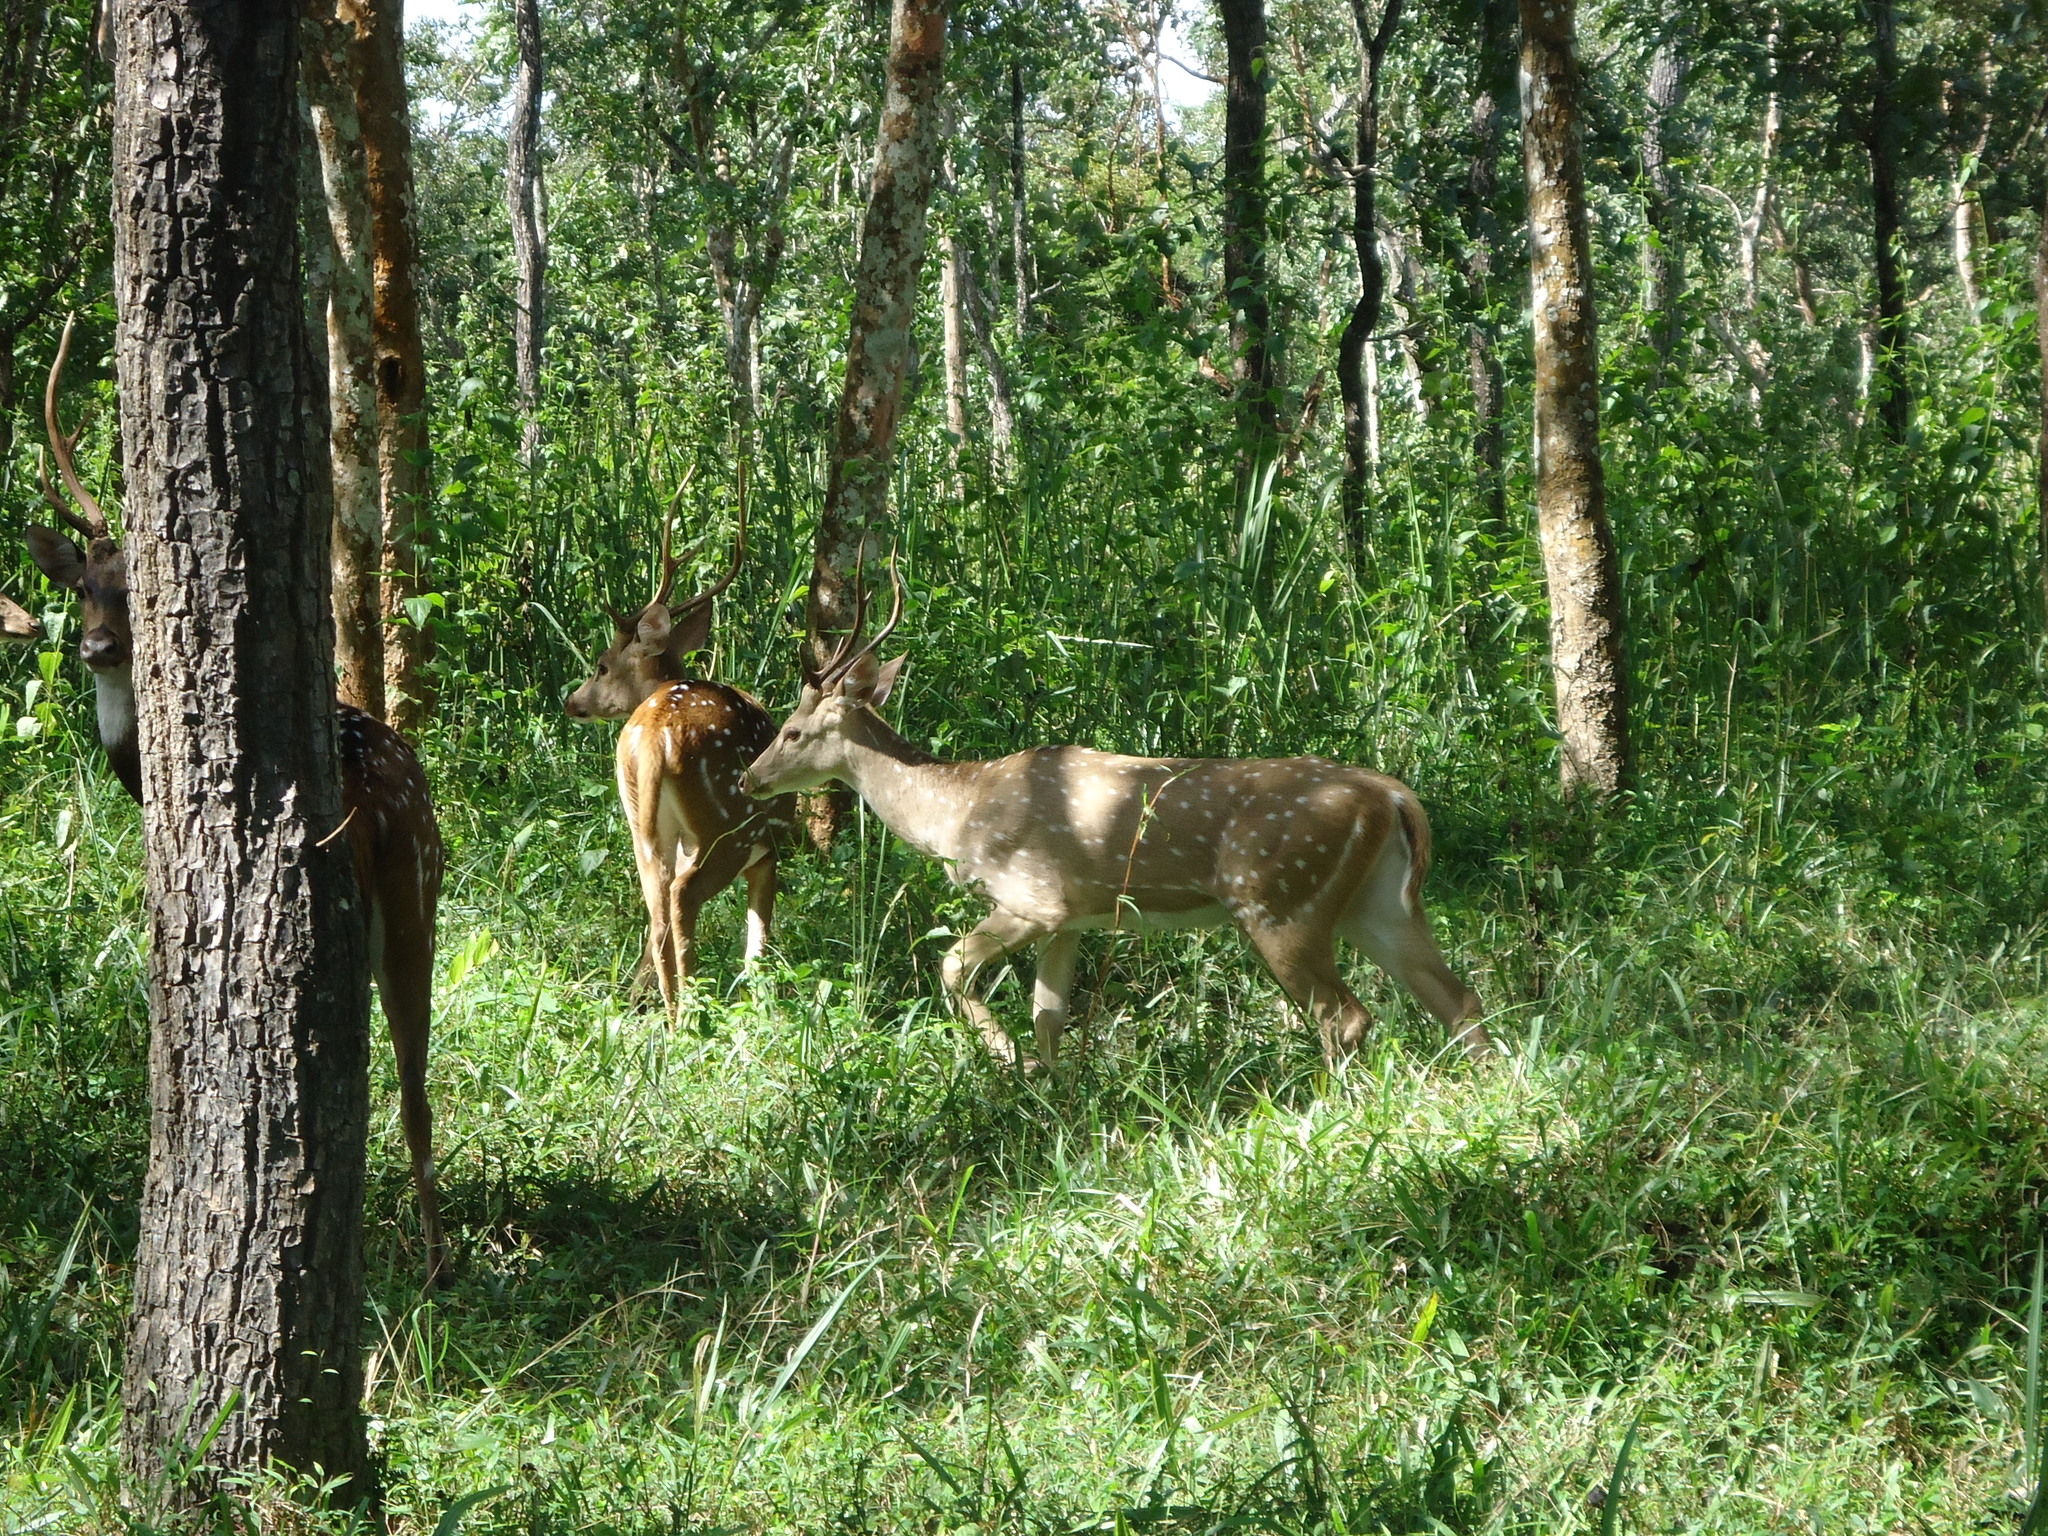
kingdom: Animalia
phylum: Chordata
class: Mammalia
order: Artiodactyla
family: Cervidae
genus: Axis
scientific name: Axis axis
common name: Chital
